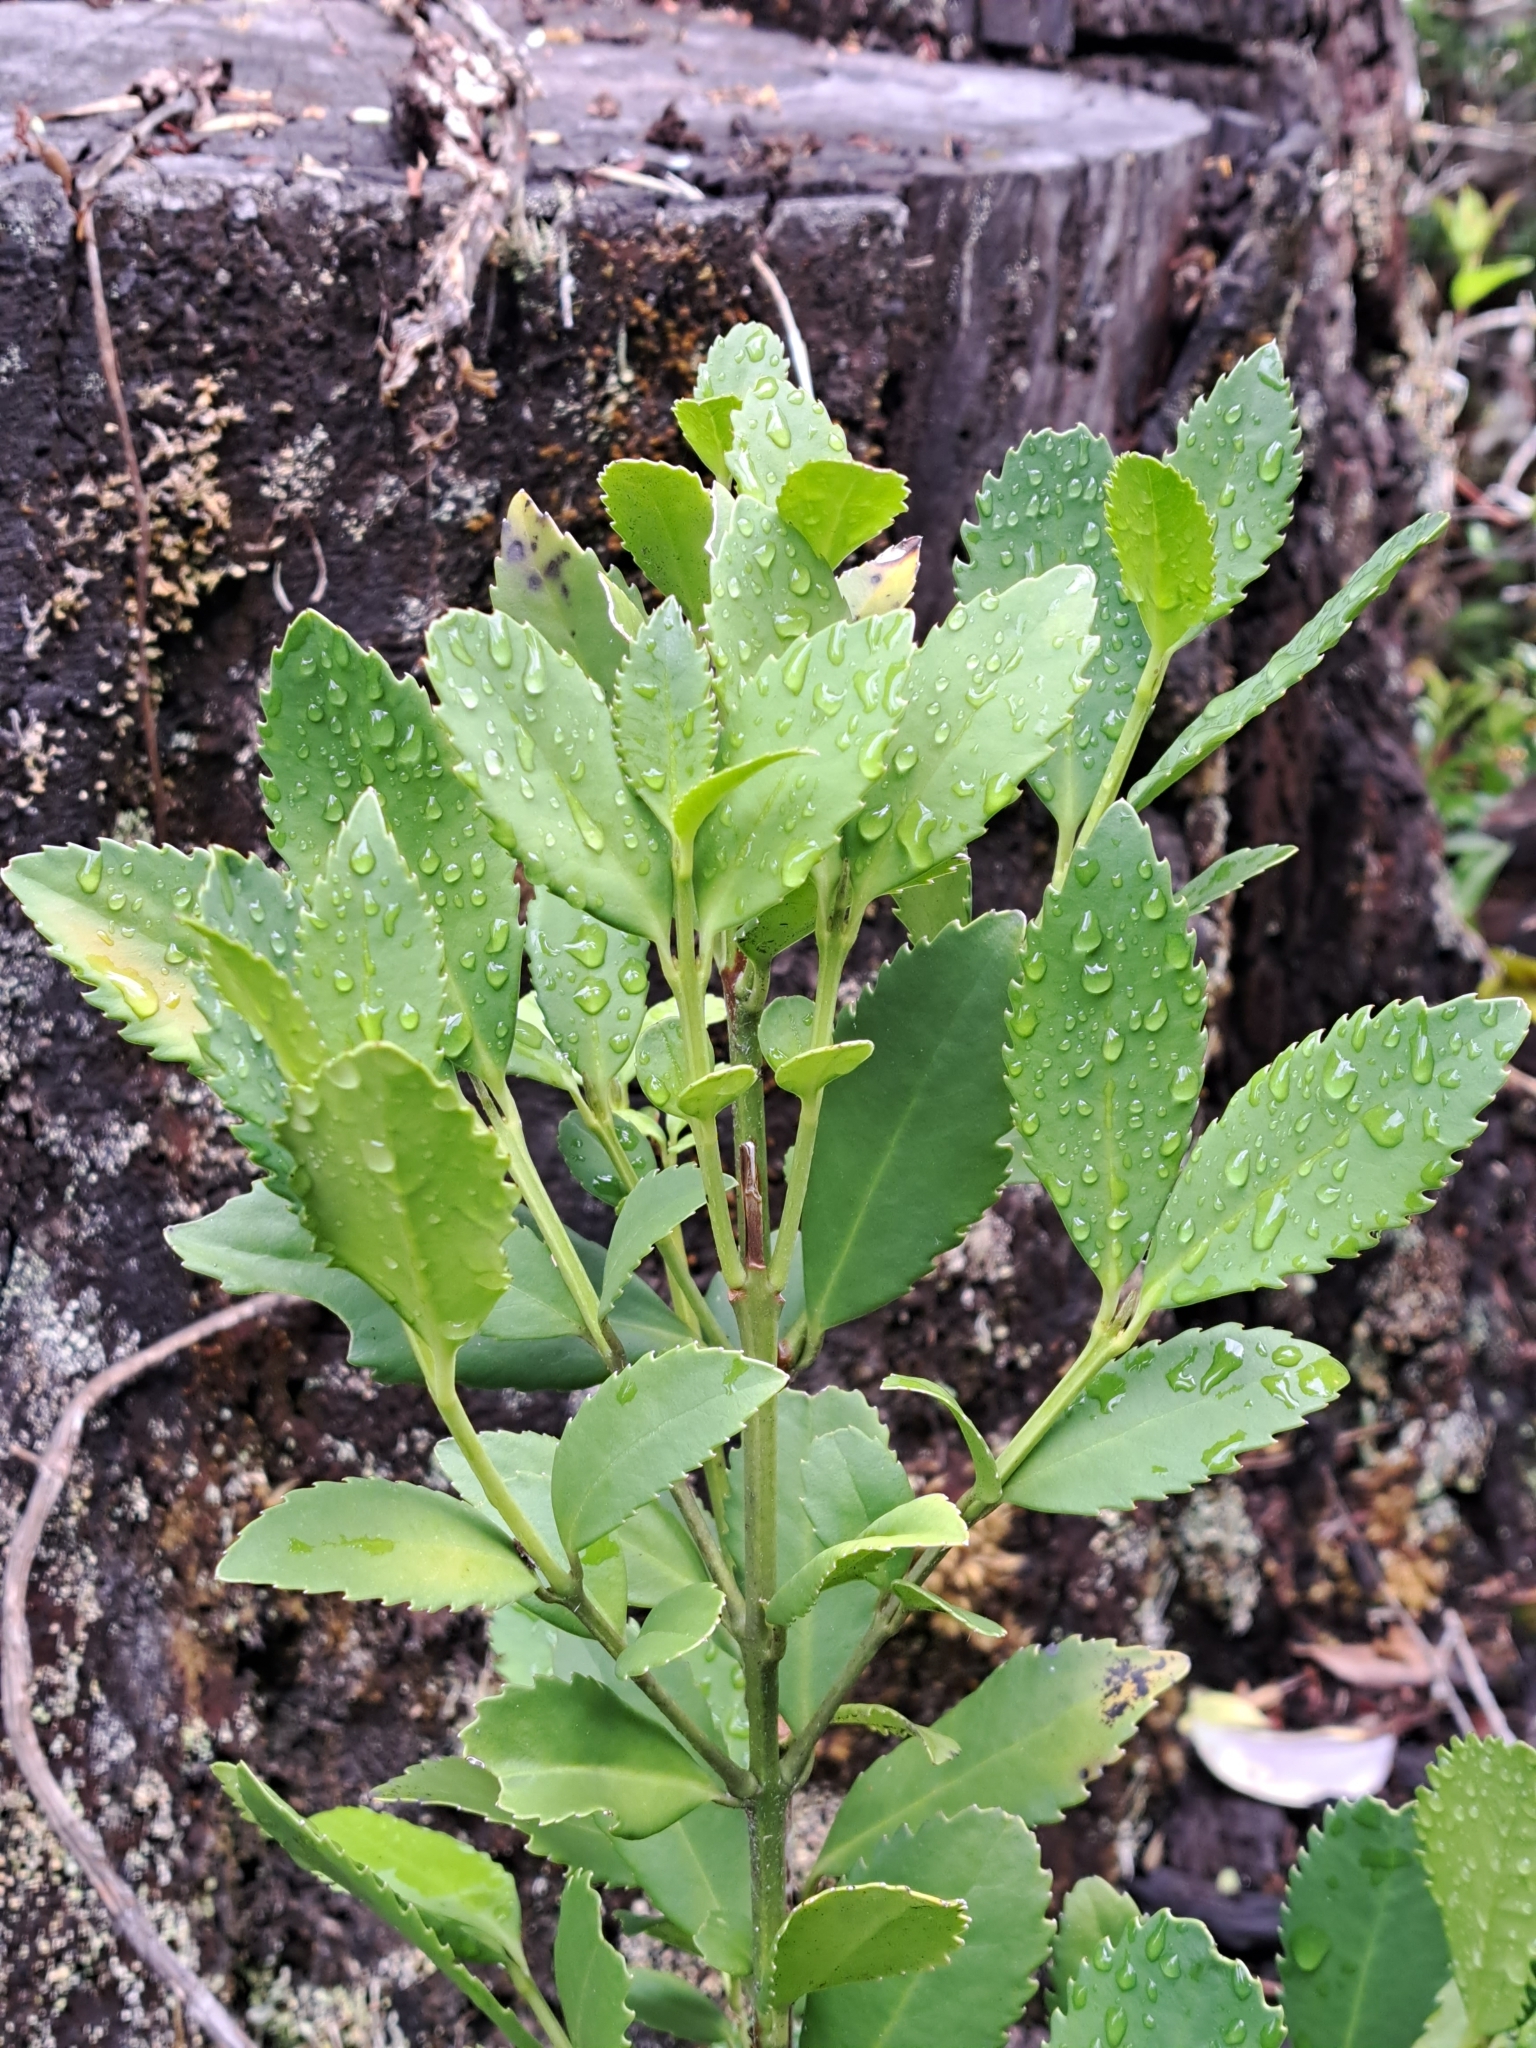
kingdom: Plantae
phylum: Tracheophyta
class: Magnoliopsida
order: Laurales
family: Atherospermataceae
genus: Laureliopsis
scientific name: Laureliopsis philippiana
